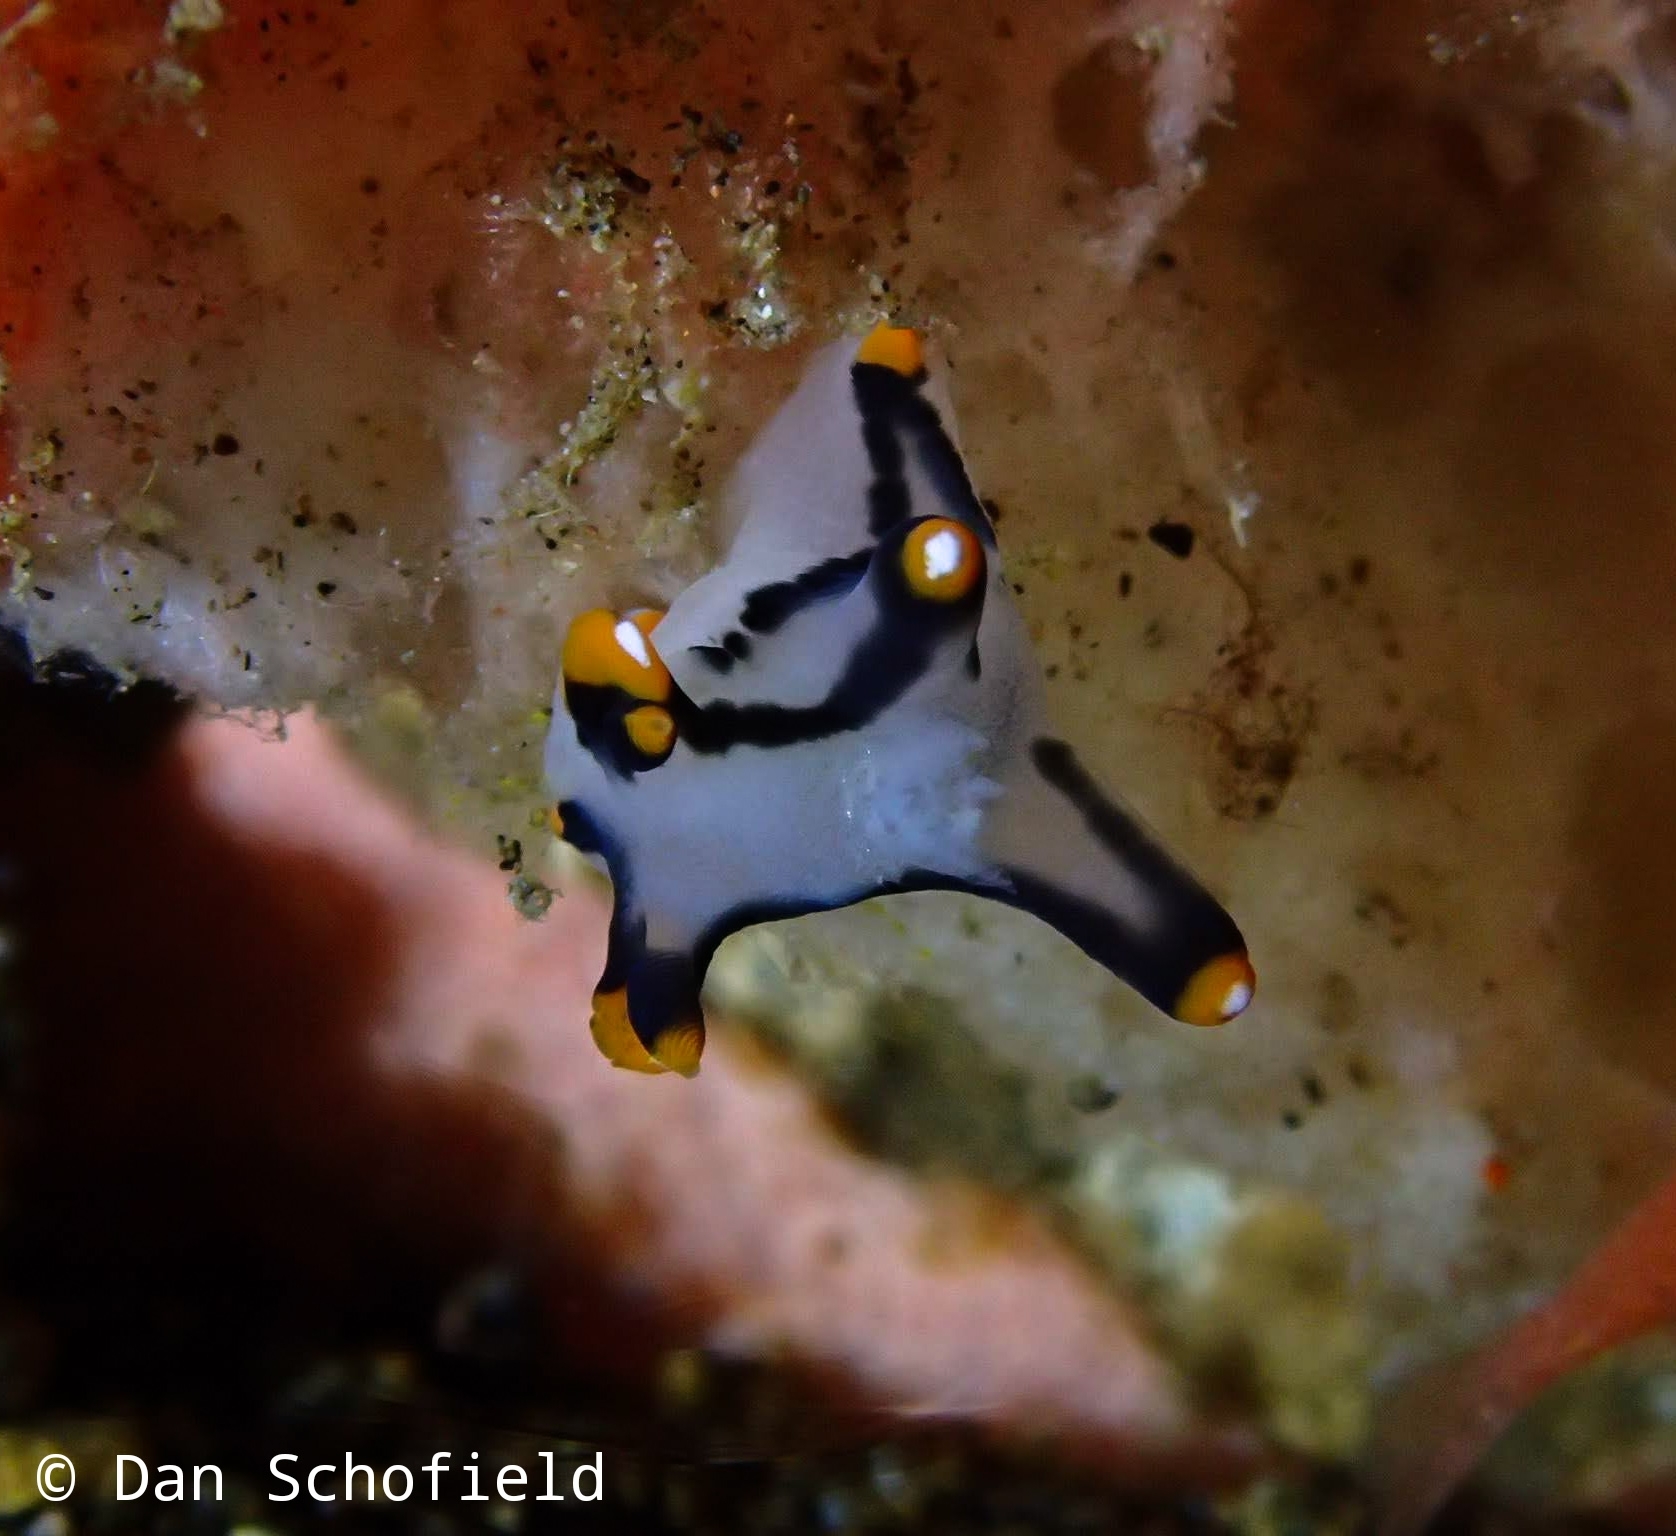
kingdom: Animalia
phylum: Mollusca
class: Gastropoda
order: Nudibranchia
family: Polyceridae
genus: Thecacera
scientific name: Thecacera picta
